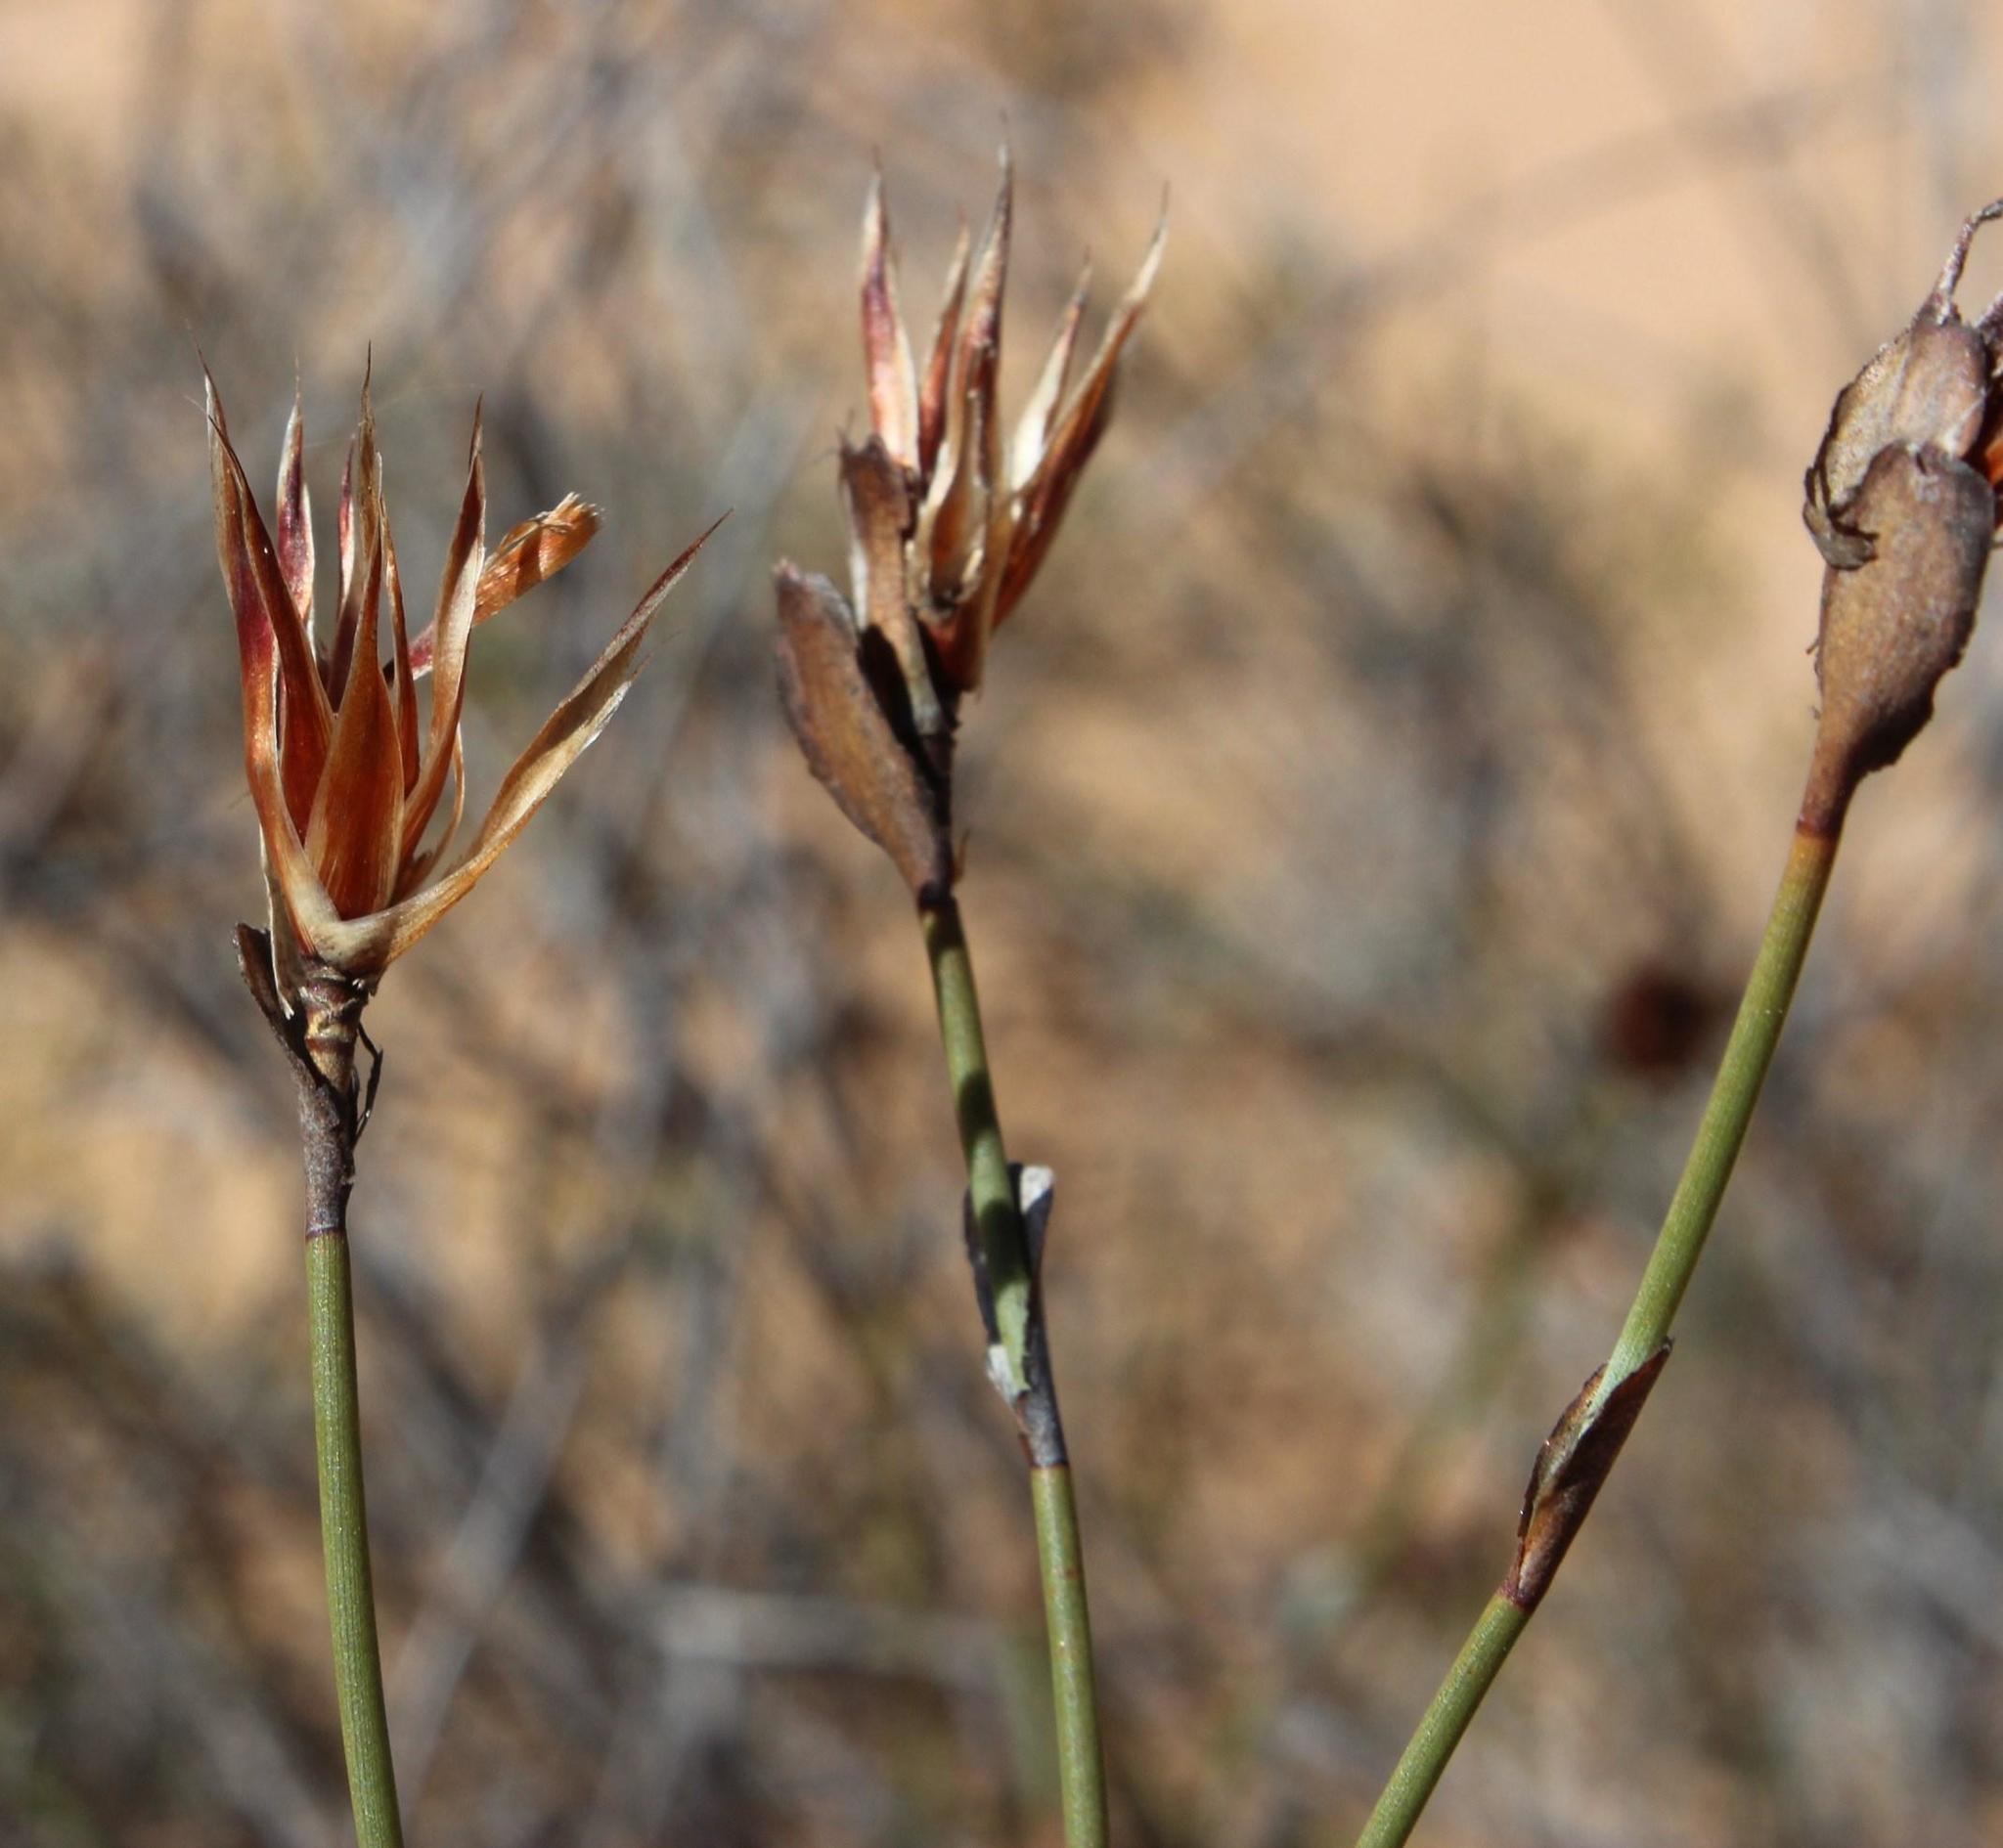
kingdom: Plantae
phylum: Tracheophyta
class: Liliopsida
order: Poales
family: Restionaceae
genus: Willdenowia
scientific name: Willdenowia incurvata
